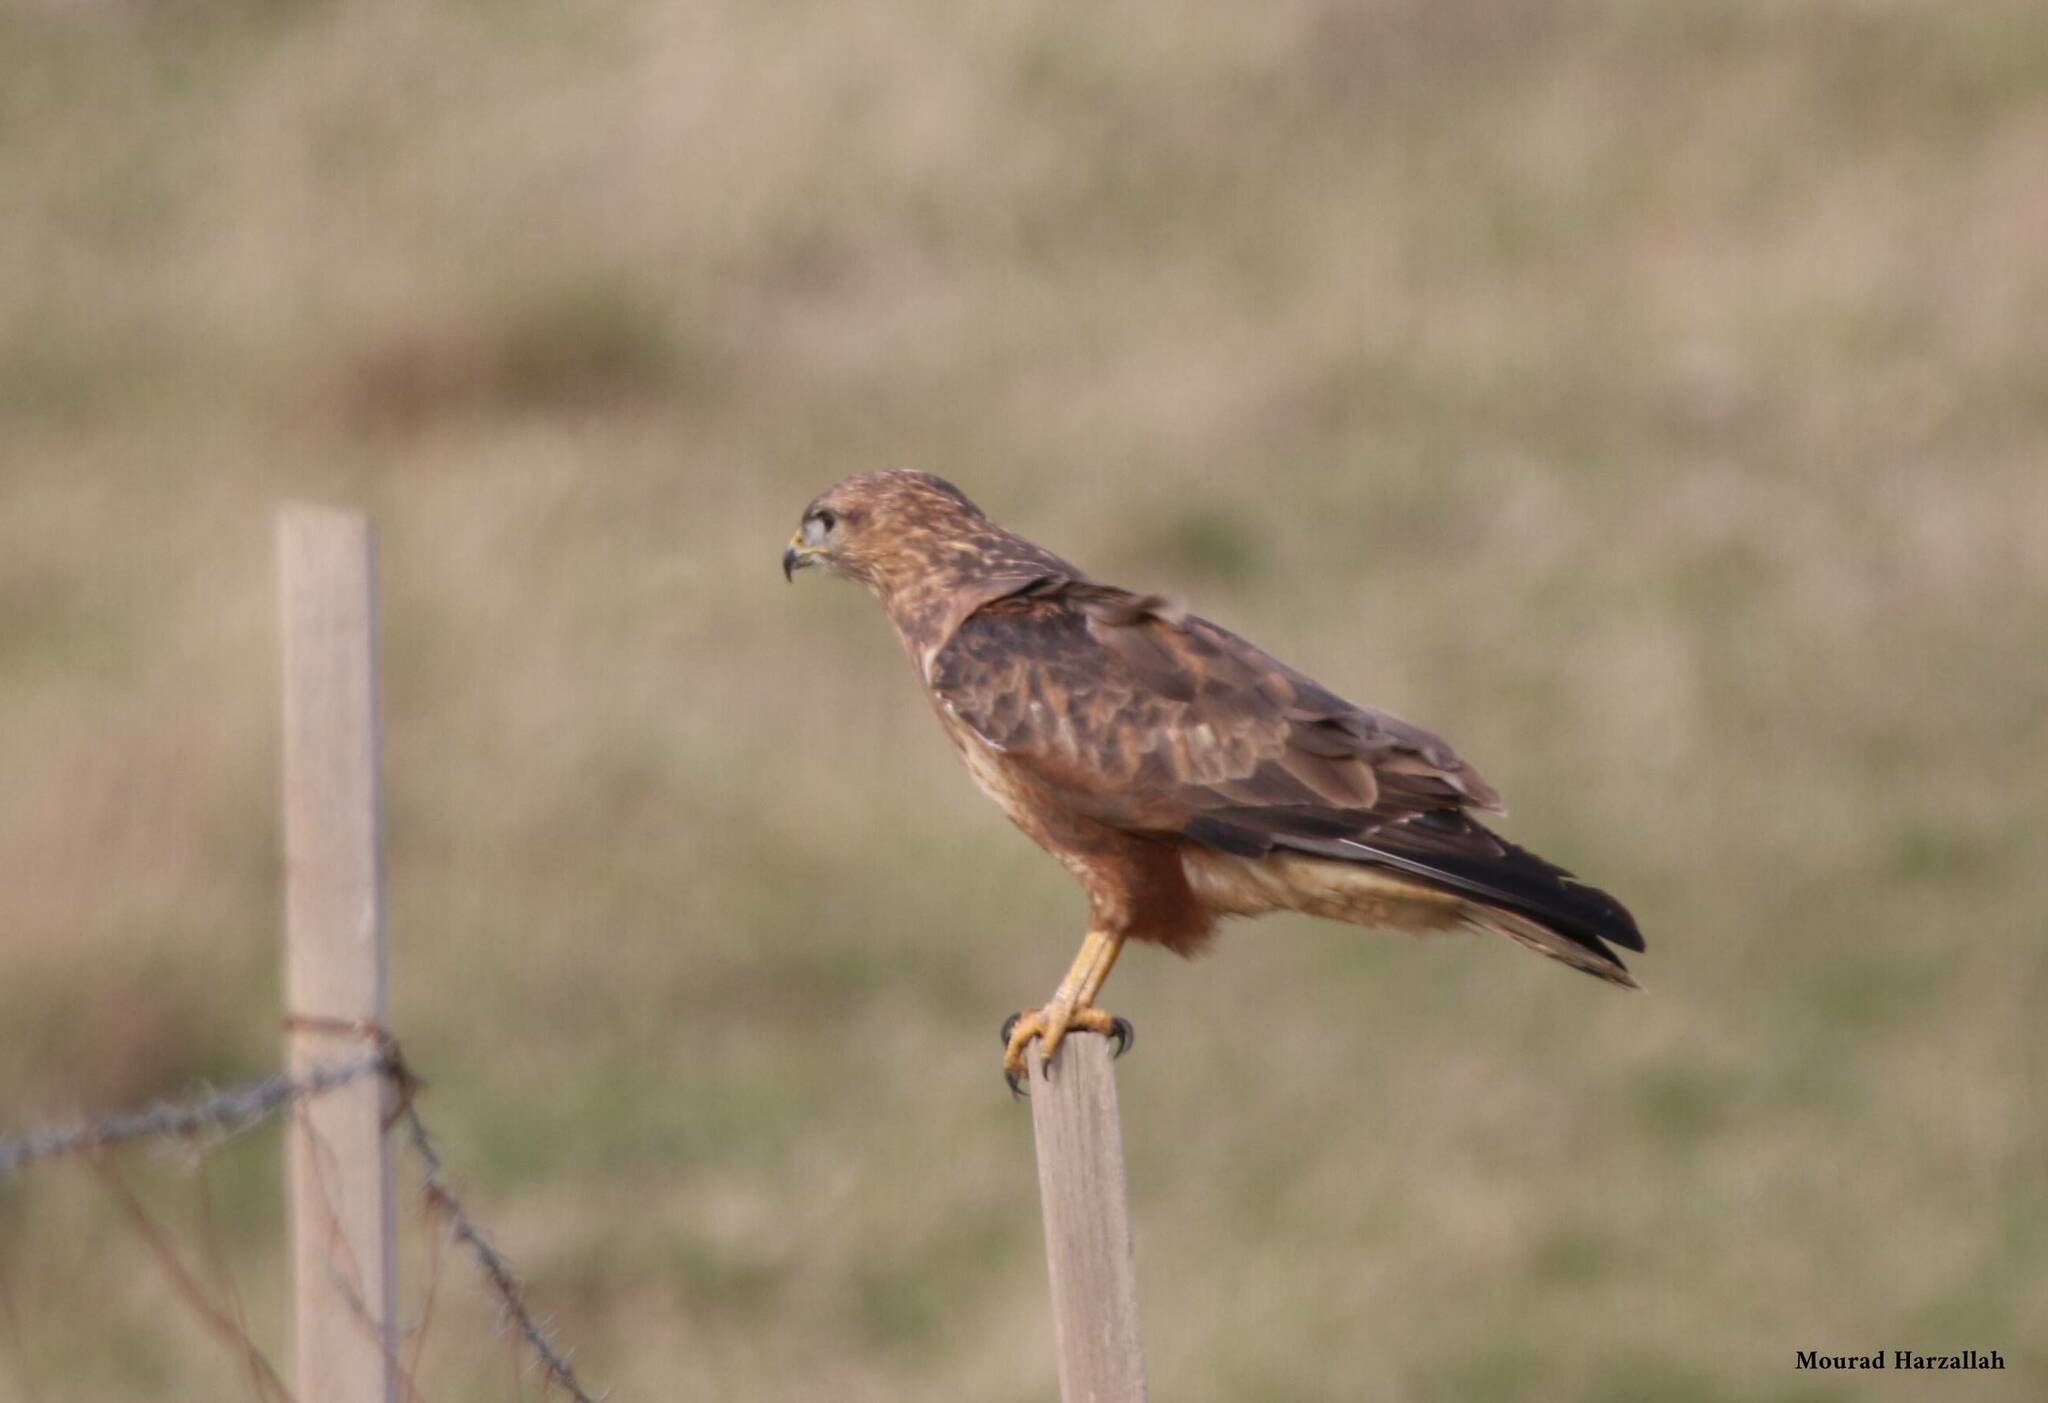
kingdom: Animalia
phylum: Chordata
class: Aves
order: Accipitriformes
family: Accipitridae
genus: Buteo
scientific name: Buteo rufinus
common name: Long-legged buzzard
